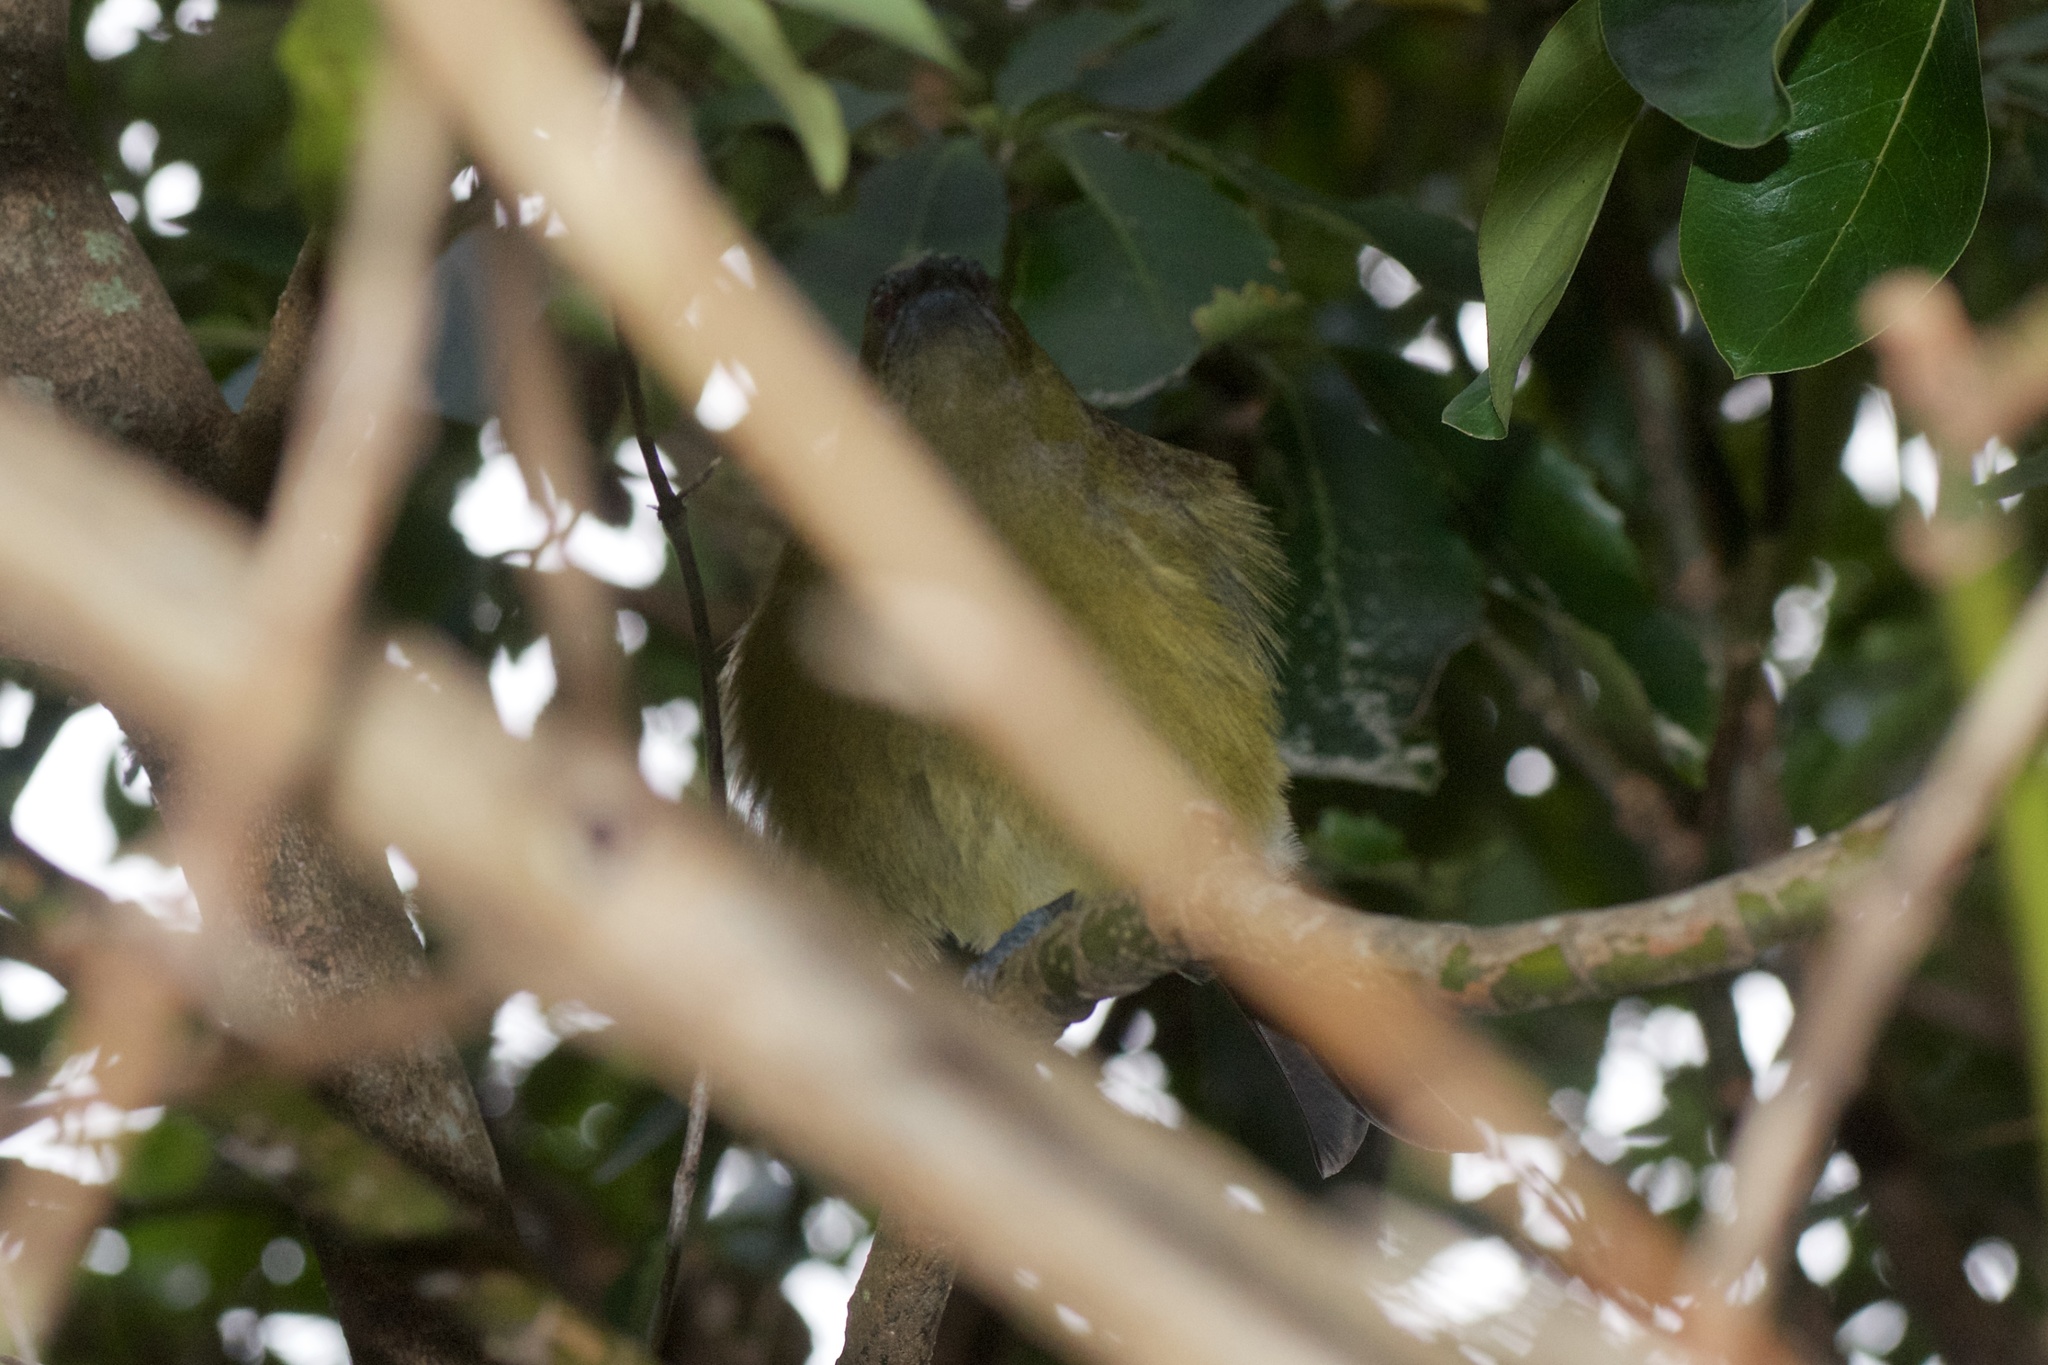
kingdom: Animalia
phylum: Chordata
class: Aves
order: Passeriformes
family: Meliphagidae
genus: Anthornis
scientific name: Anthornis melanura
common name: New zealand bellbird
